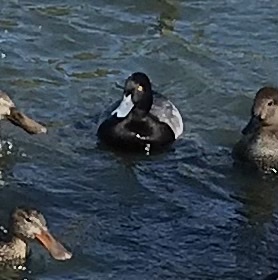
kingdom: Animalia
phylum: Chordata
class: Aves
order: Anseriformes
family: Anatidae
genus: Aythya
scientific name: Aythya affinis
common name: Lesser scaup
